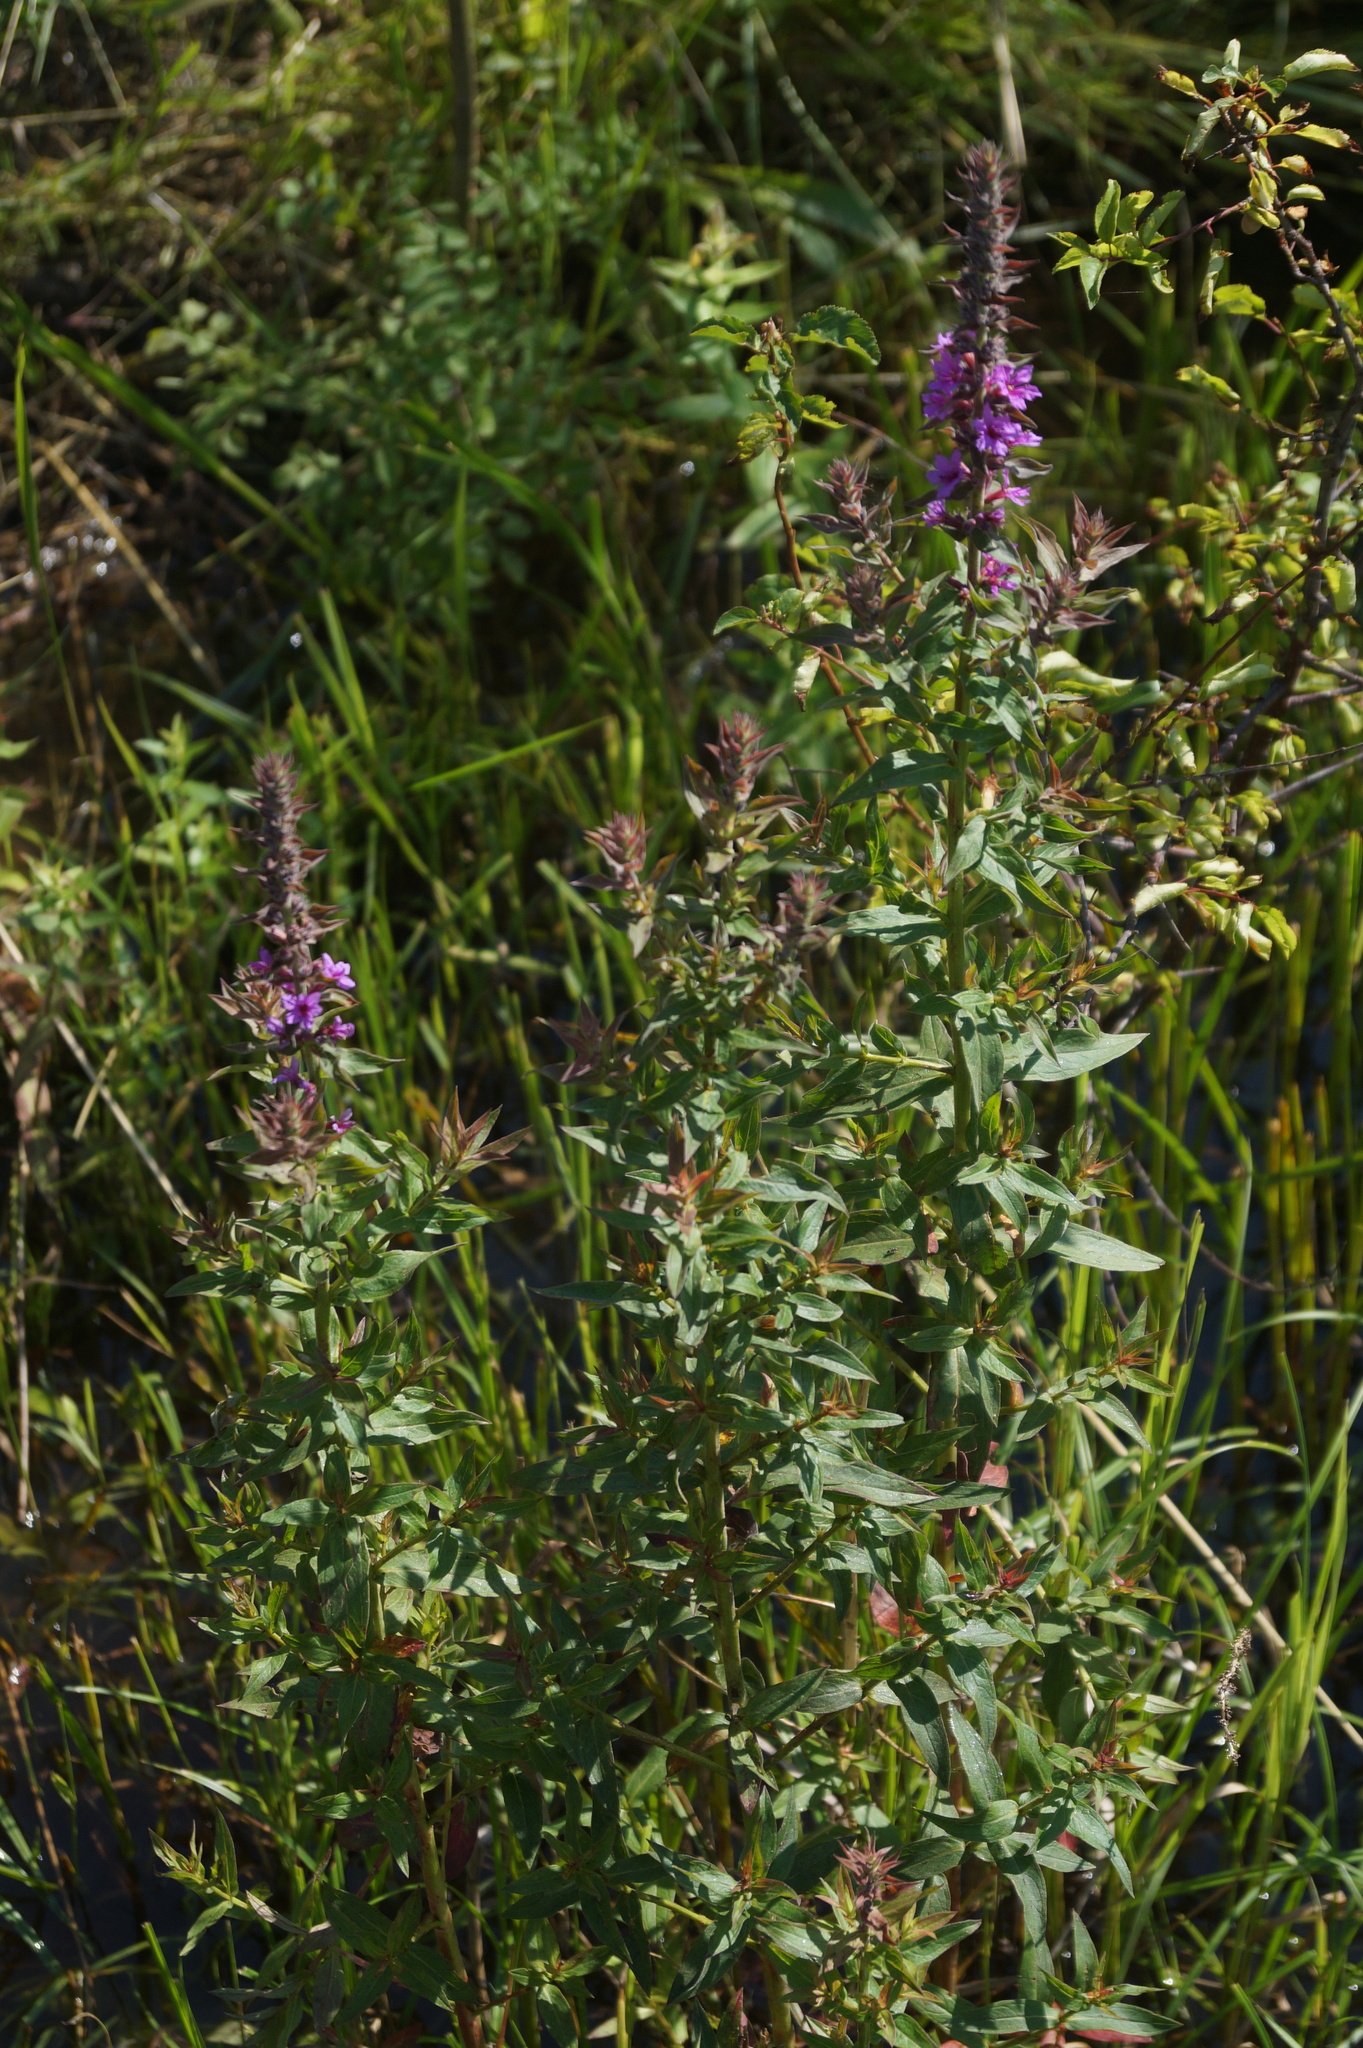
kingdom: Plantae
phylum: Tracheophyta
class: Magnoliopsida
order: Myrtales
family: Lythraceae
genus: Lythrum
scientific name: Lythrum salicaria
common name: Purple loosestrife
